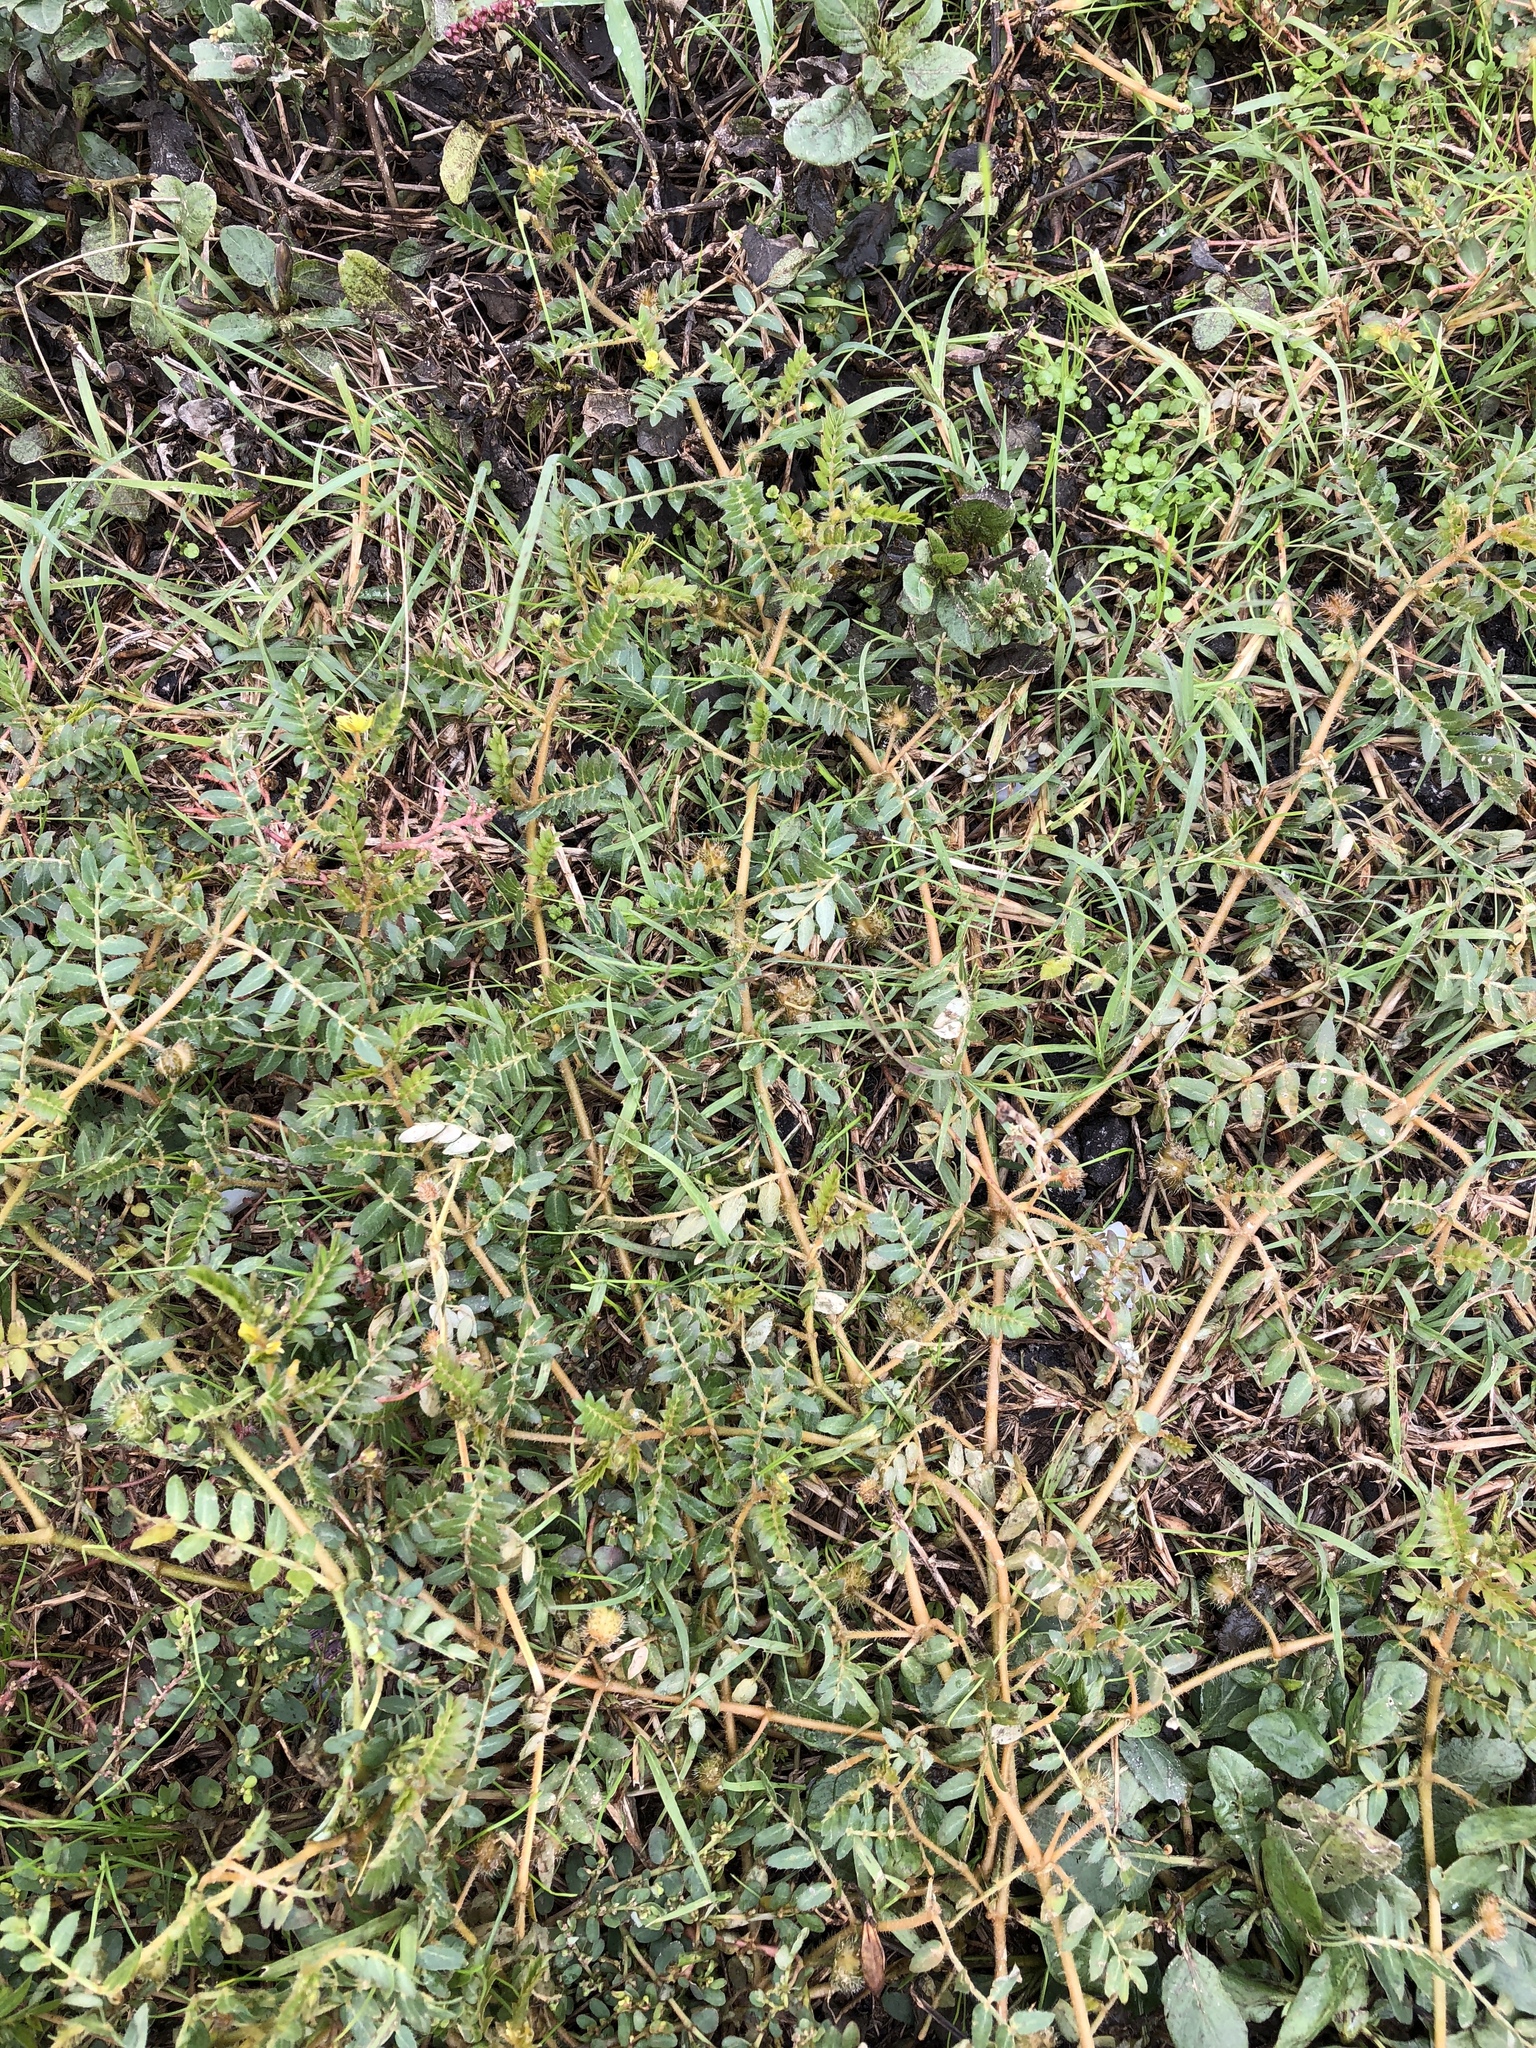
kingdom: Plantae
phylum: Tracheophyta
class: Magnoliopsida
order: Zygophyllales
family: Zygophyllaceae
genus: Tribulus
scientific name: Tribulus terrestris
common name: Puncturevine
